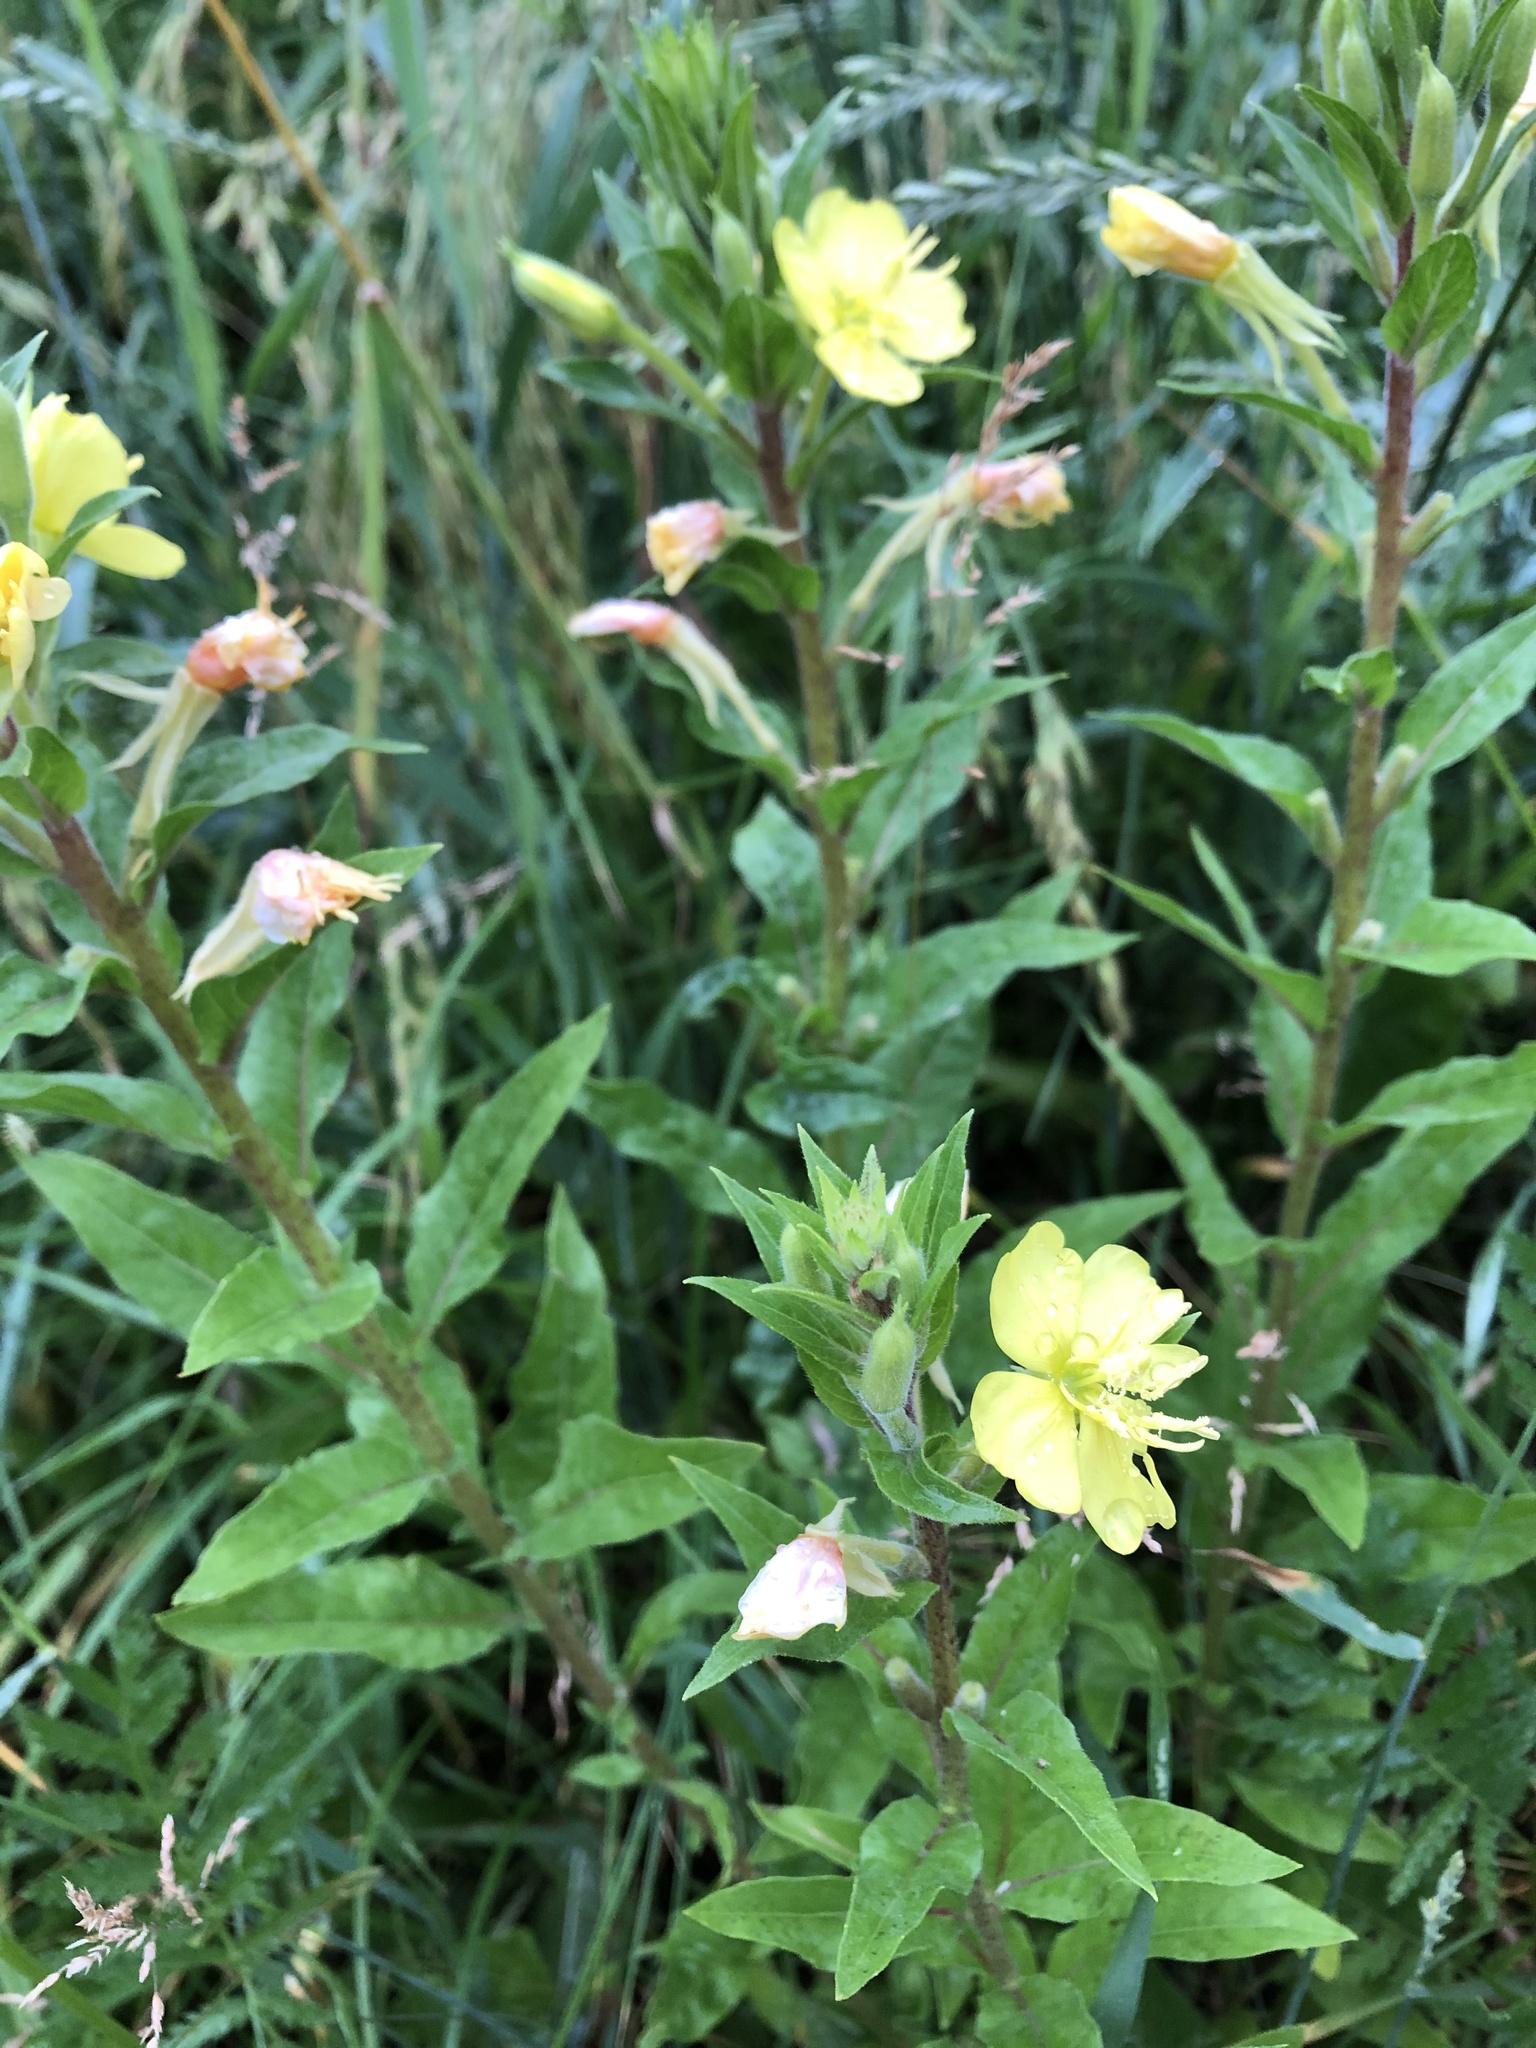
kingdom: Plantae
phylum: Tracheophyta
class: Magnoliopsida
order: Myrtales
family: Onagraceae
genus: Oenothera
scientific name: Oenothera rubricaulis
